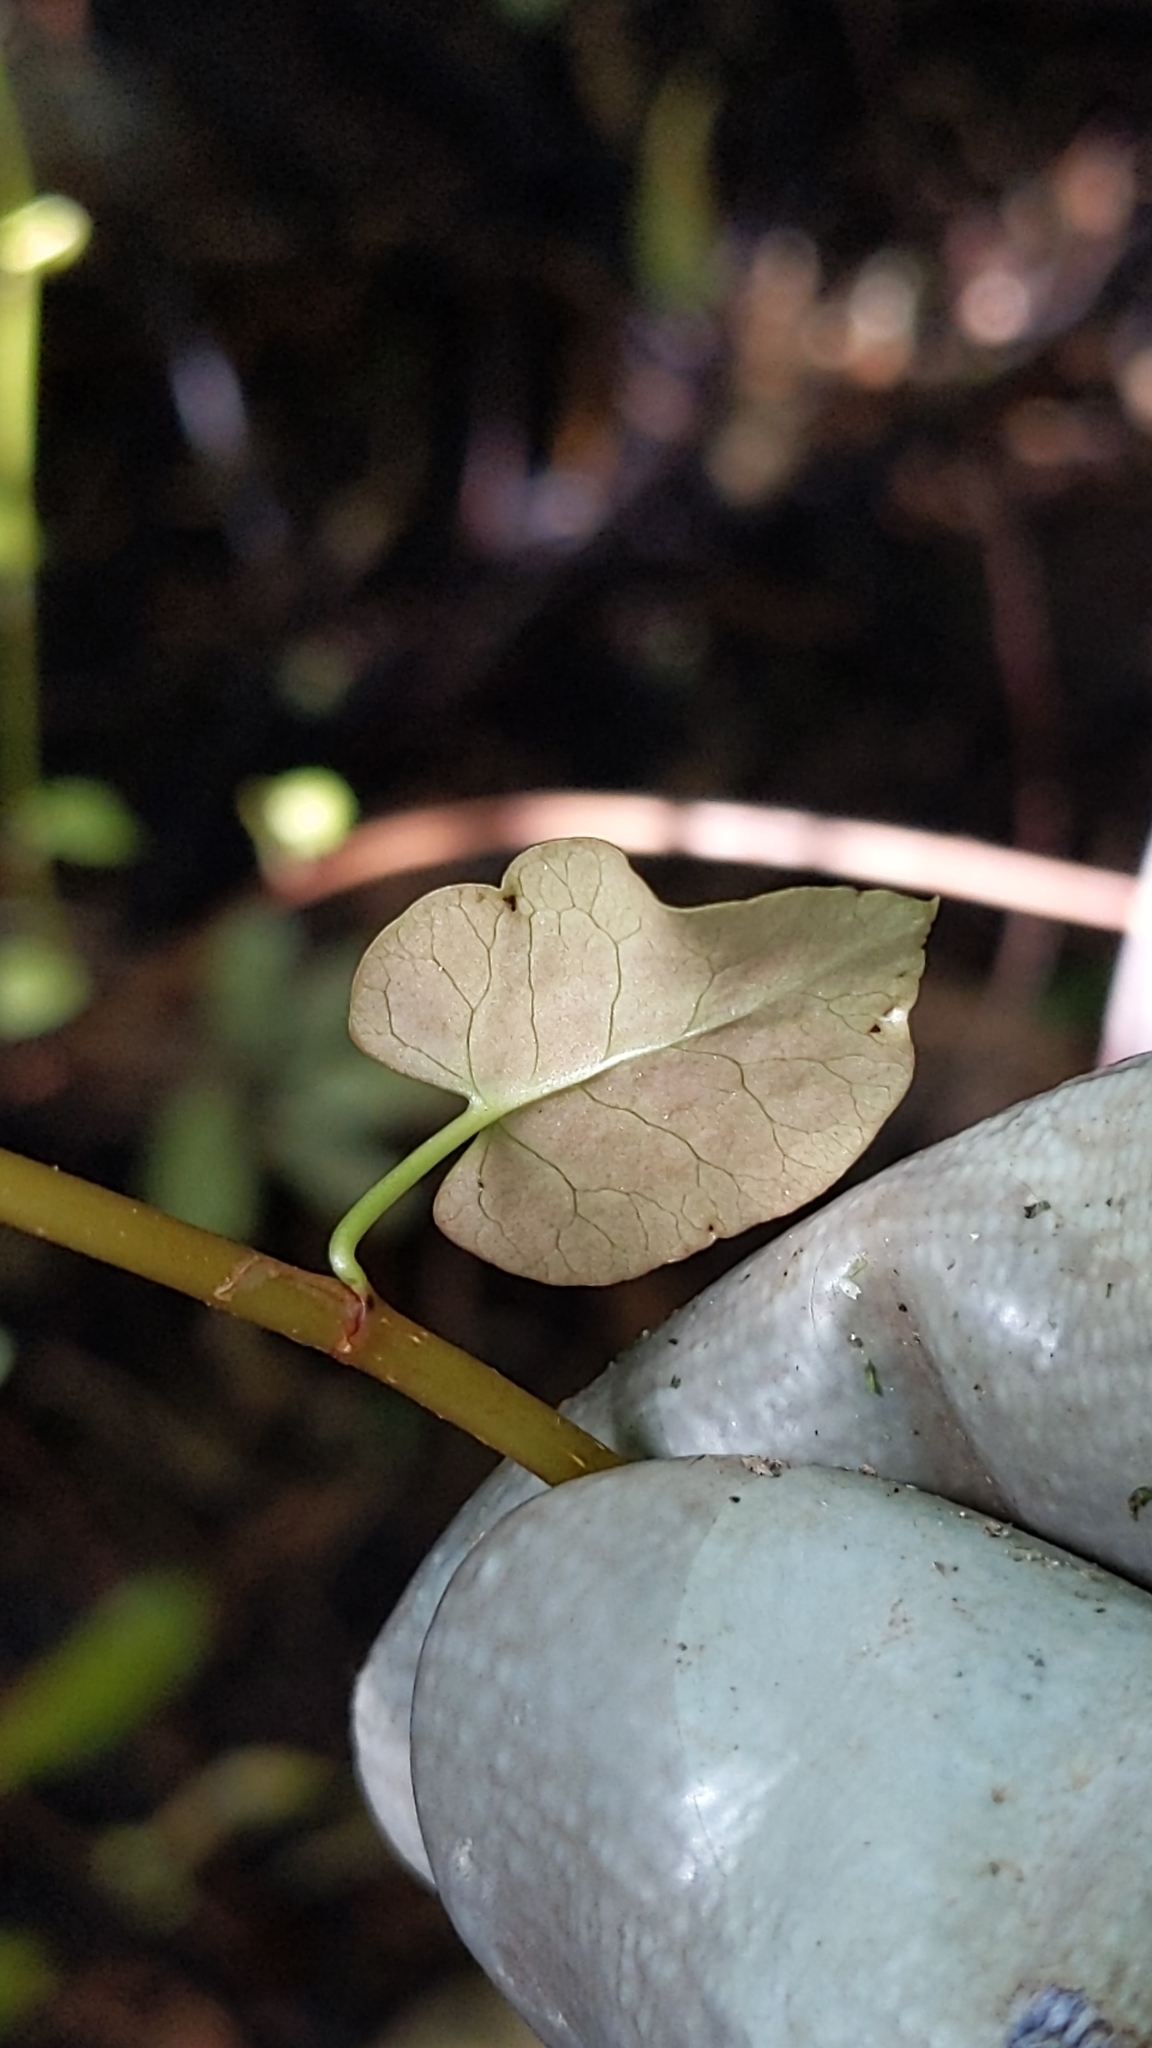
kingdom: Plantae
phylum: Tracheophyta
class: Magnoliopsida
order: Caryophyllales
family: Polygonaceae
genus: Muehlenbeckia
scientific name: Muehlenbeckia australis
